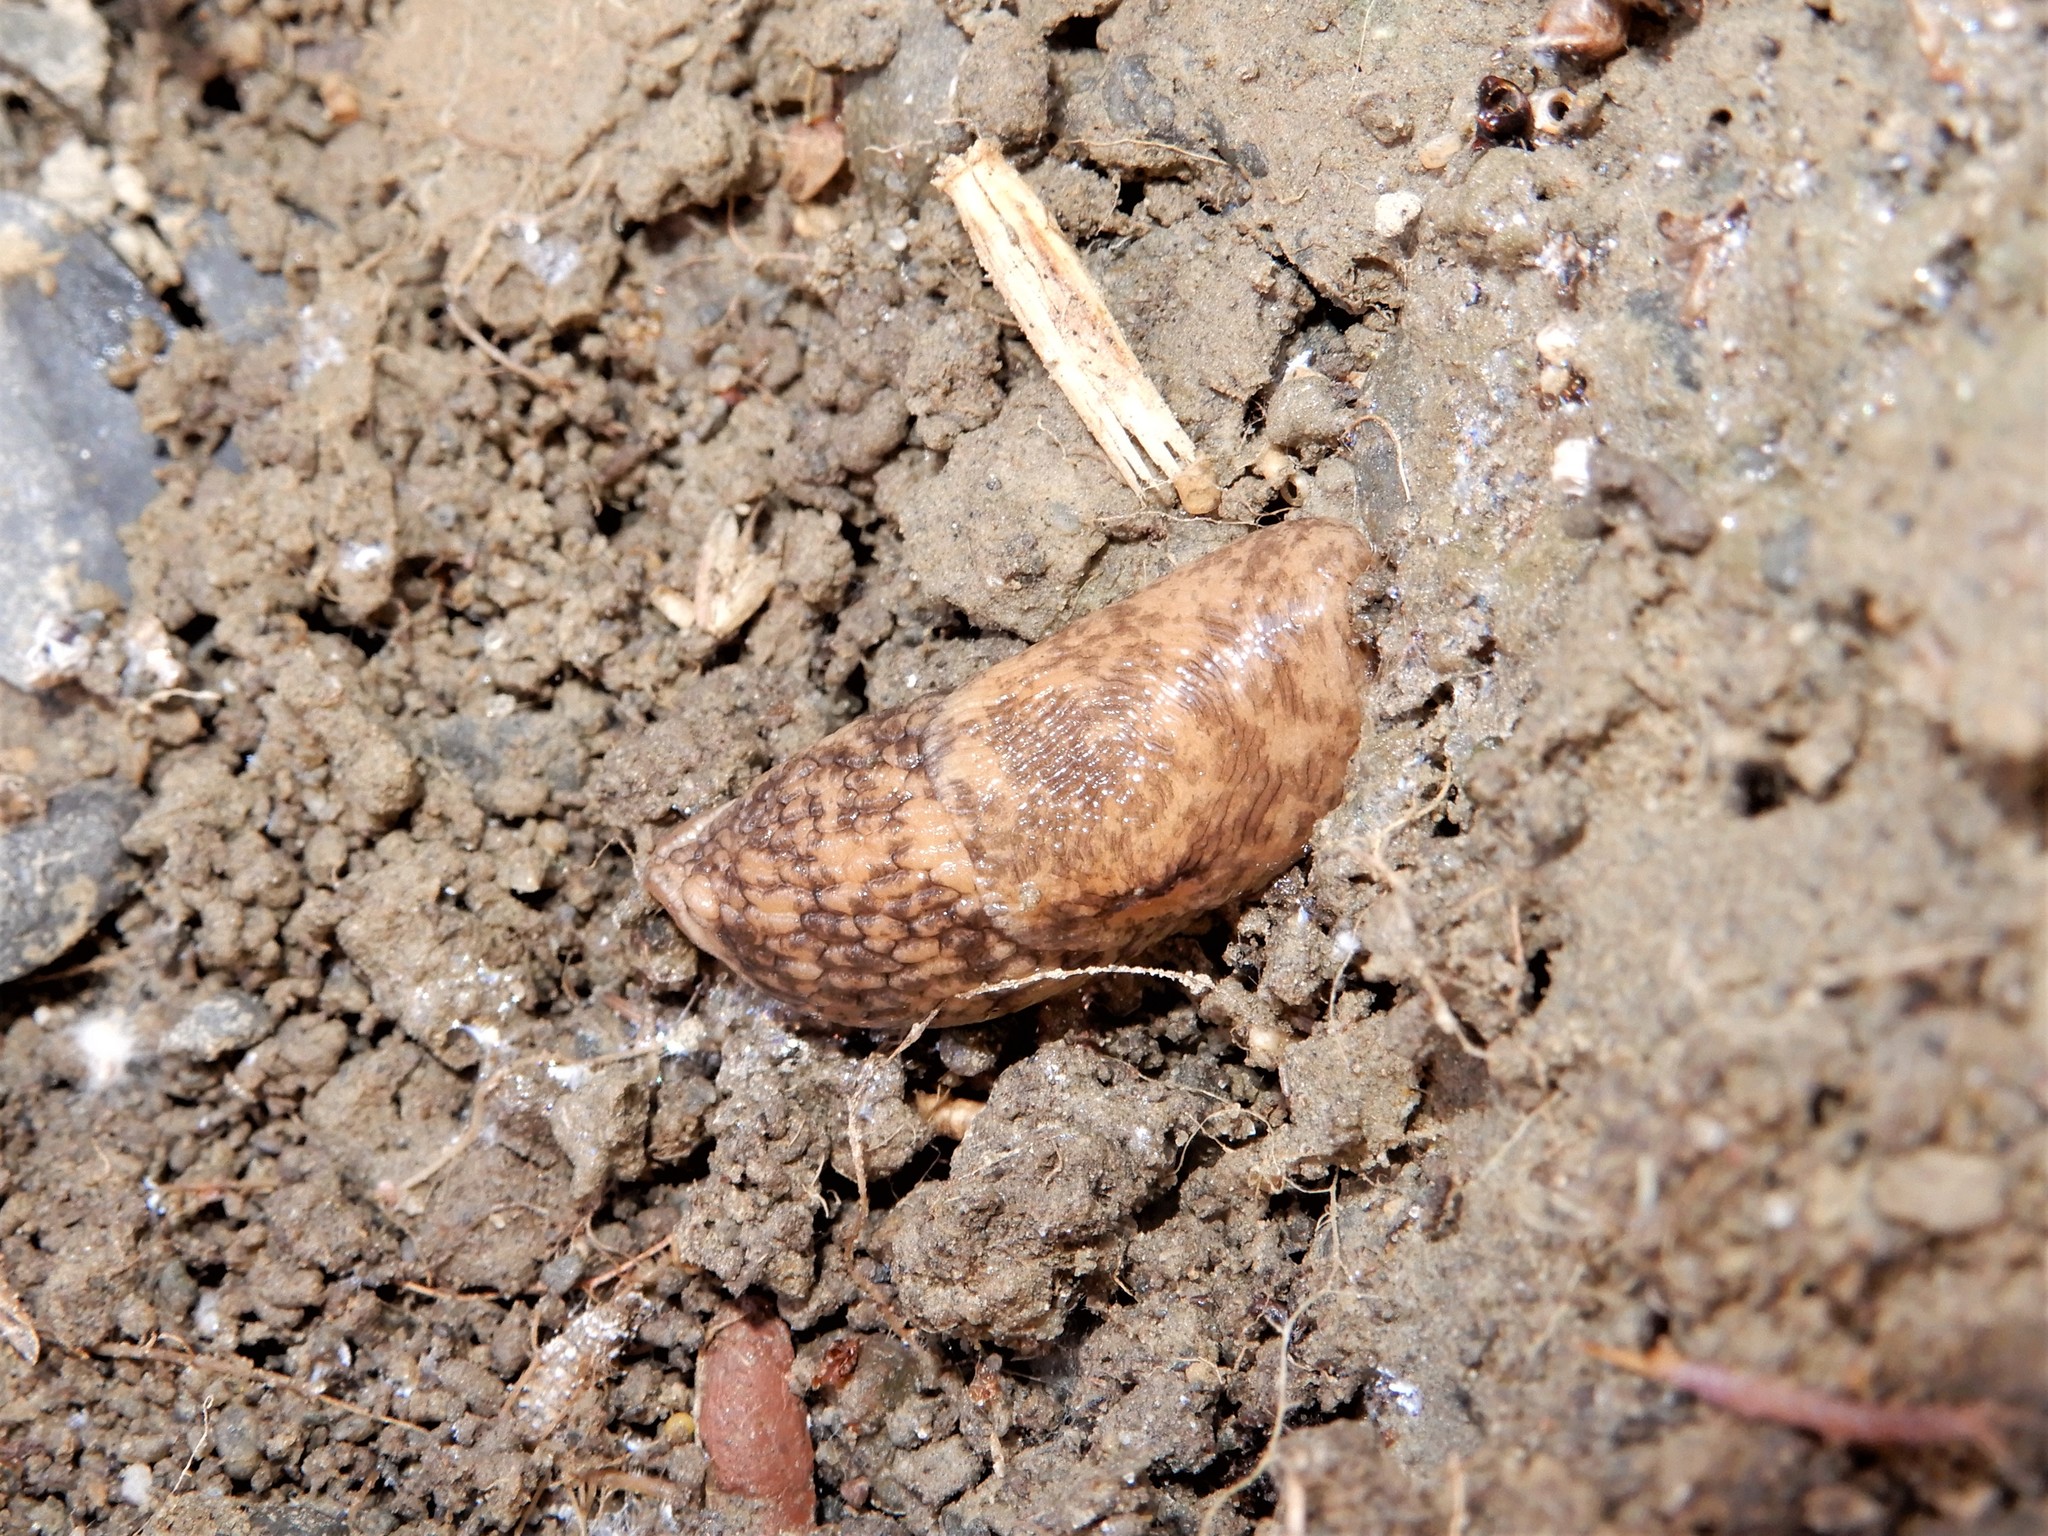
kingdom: Animalia
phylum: Mollusca
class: Gastropoda
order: Stylommatophora
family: Agriolimacidae
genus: Deroceras
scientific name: Deroceras reticulatum
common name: Gray field slug
